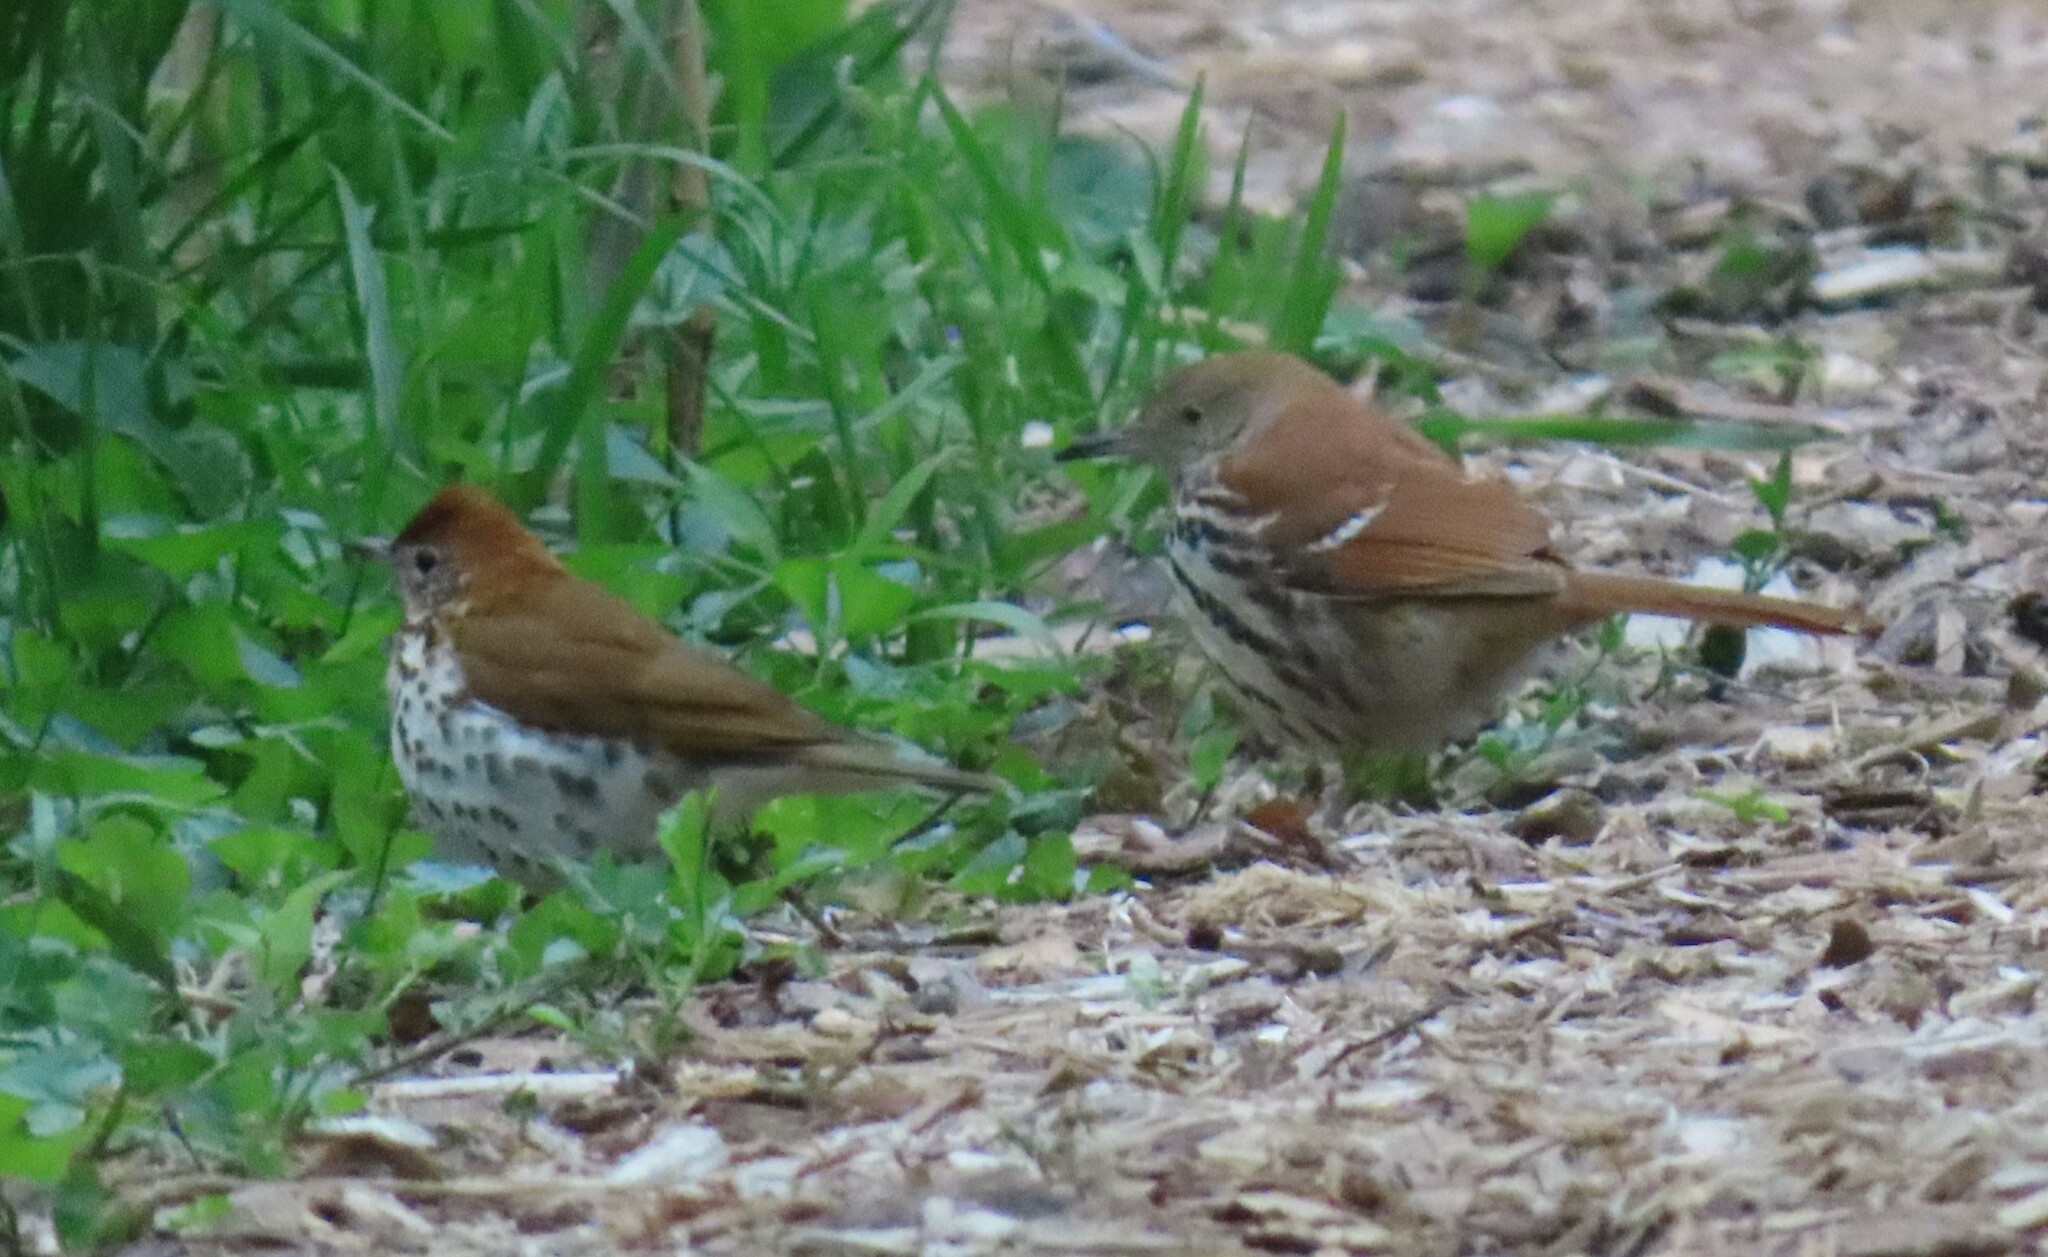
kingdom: Animalia
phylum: Chordata
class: Aves
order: Passeriformes
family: Turdidae
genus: Hylocichla
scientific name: Hylocichla mustelina
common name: Wood thrush
